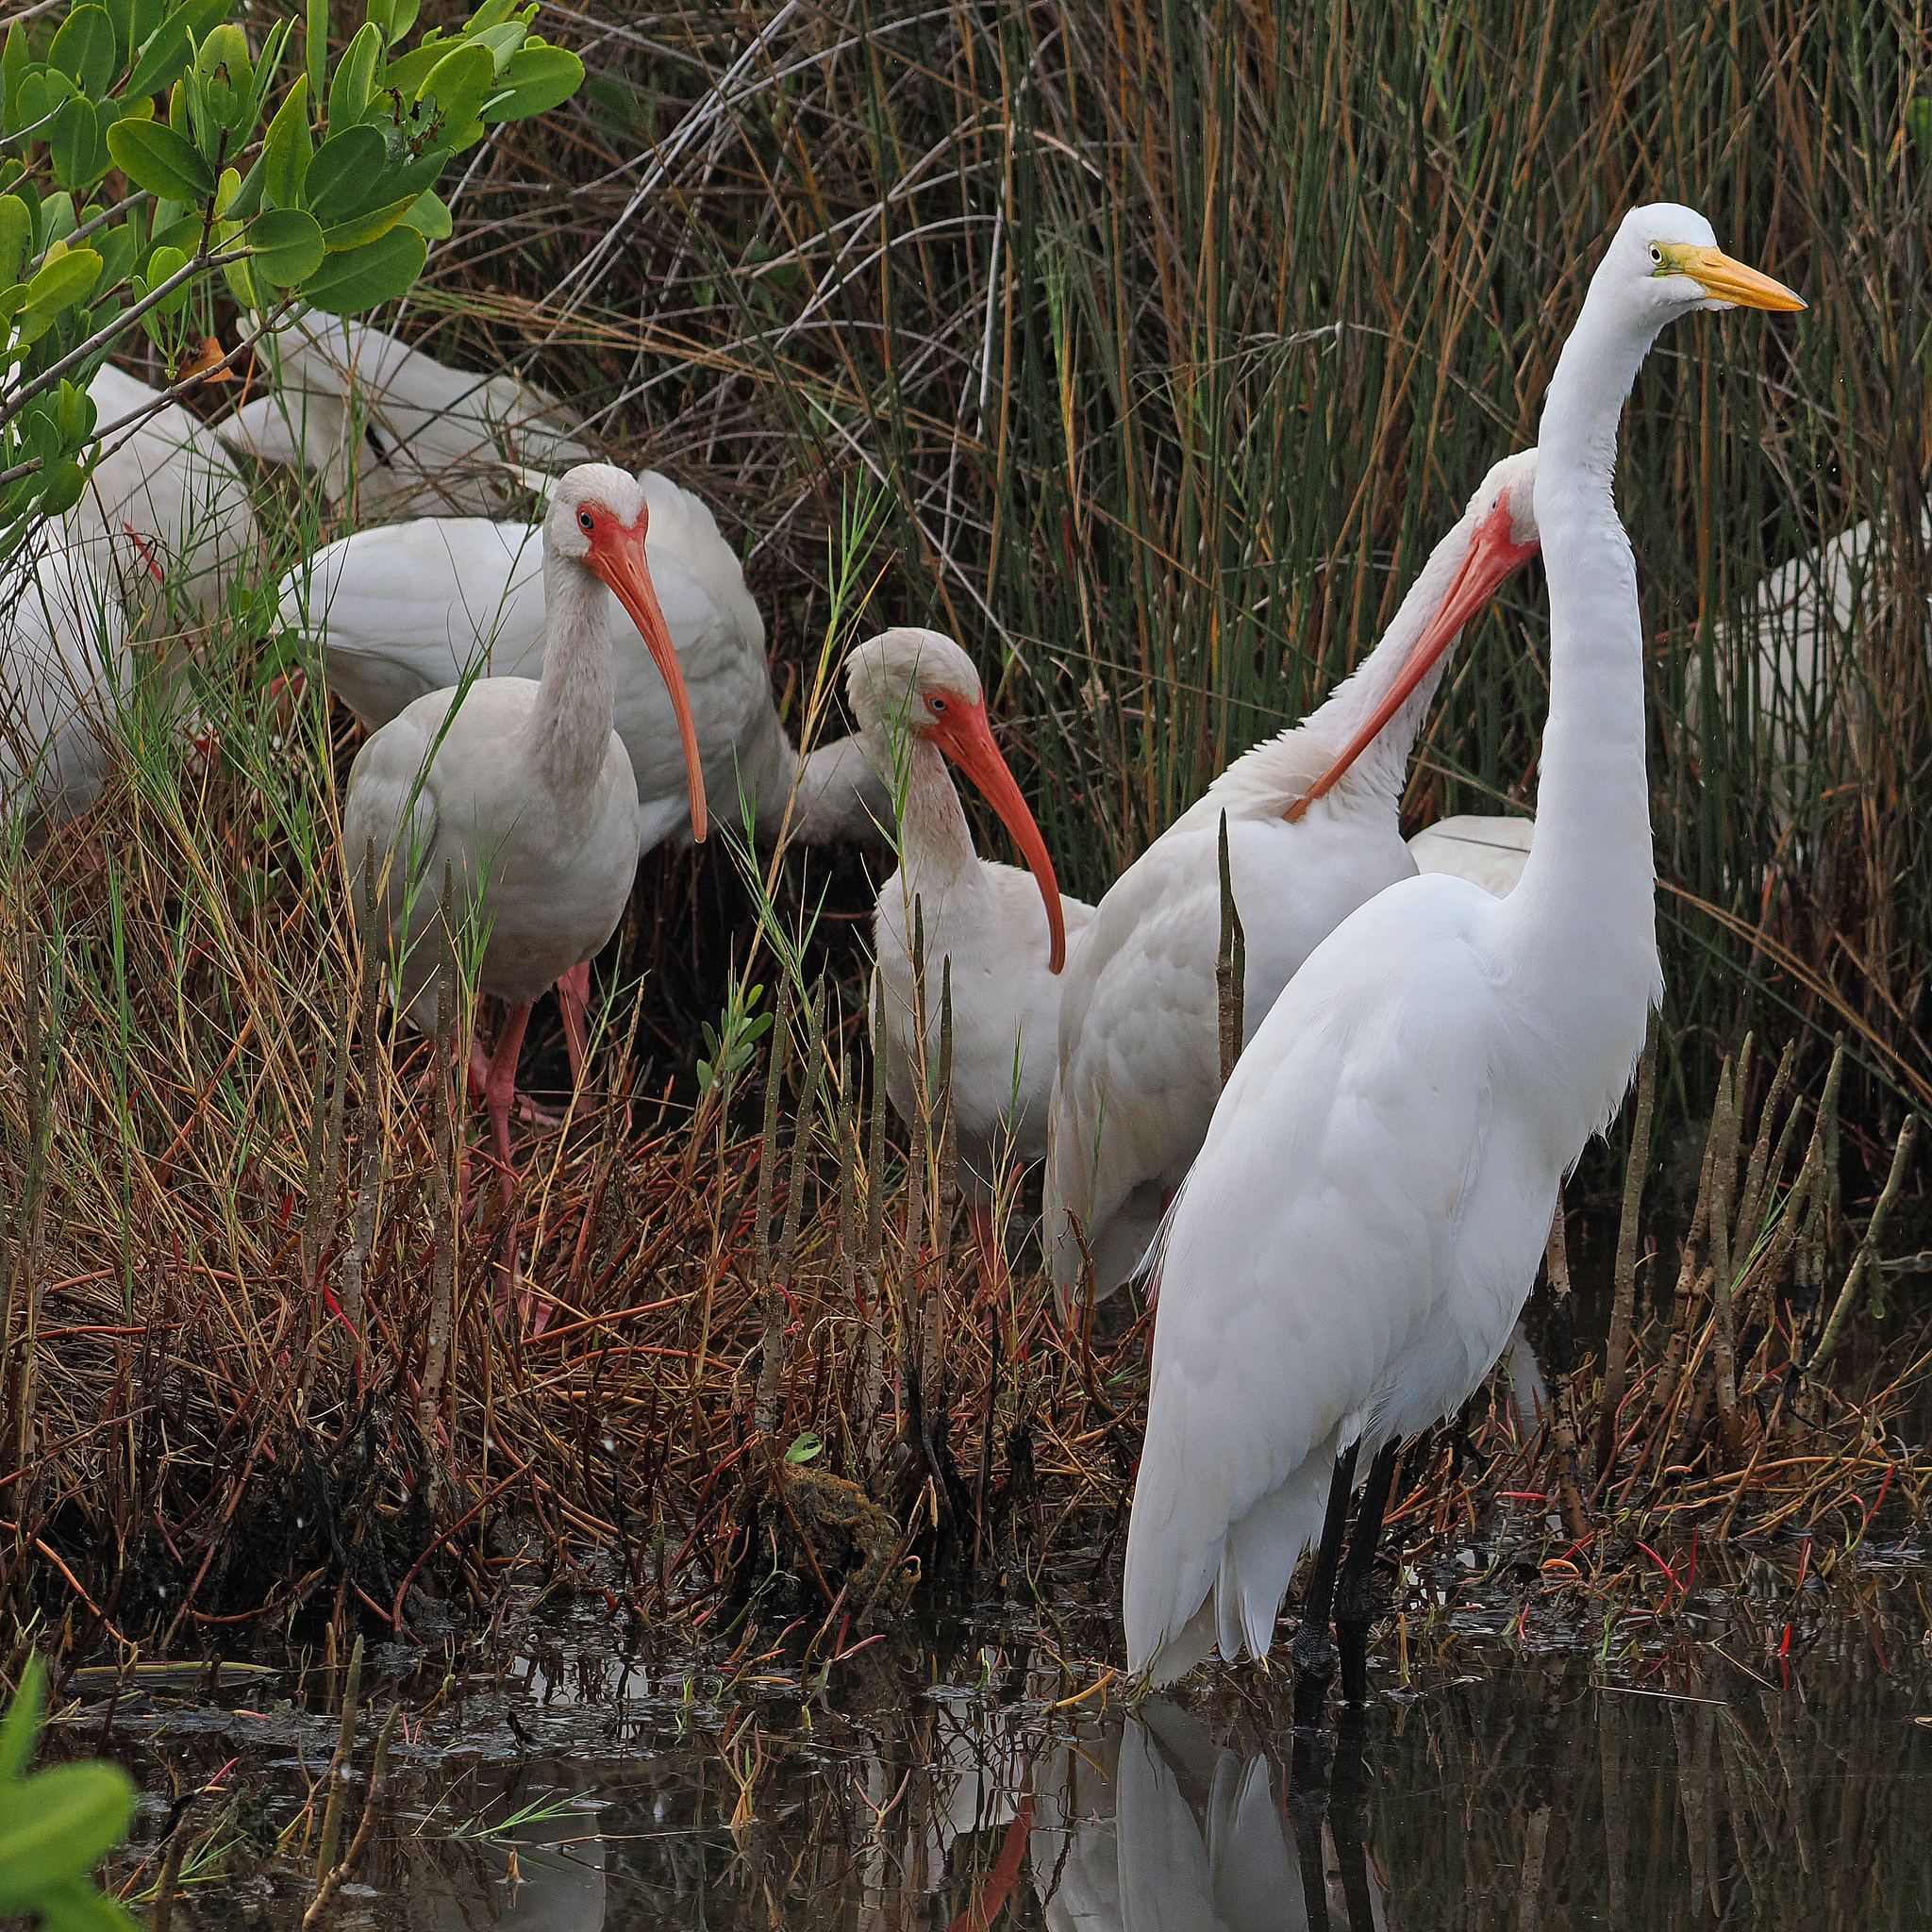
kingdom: Animalia
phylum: Chordata
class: Aves
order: Pelecaniformes
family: Threskiornithidae
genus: Eudocimus
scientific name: Eudocimus albus
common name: White ibis
